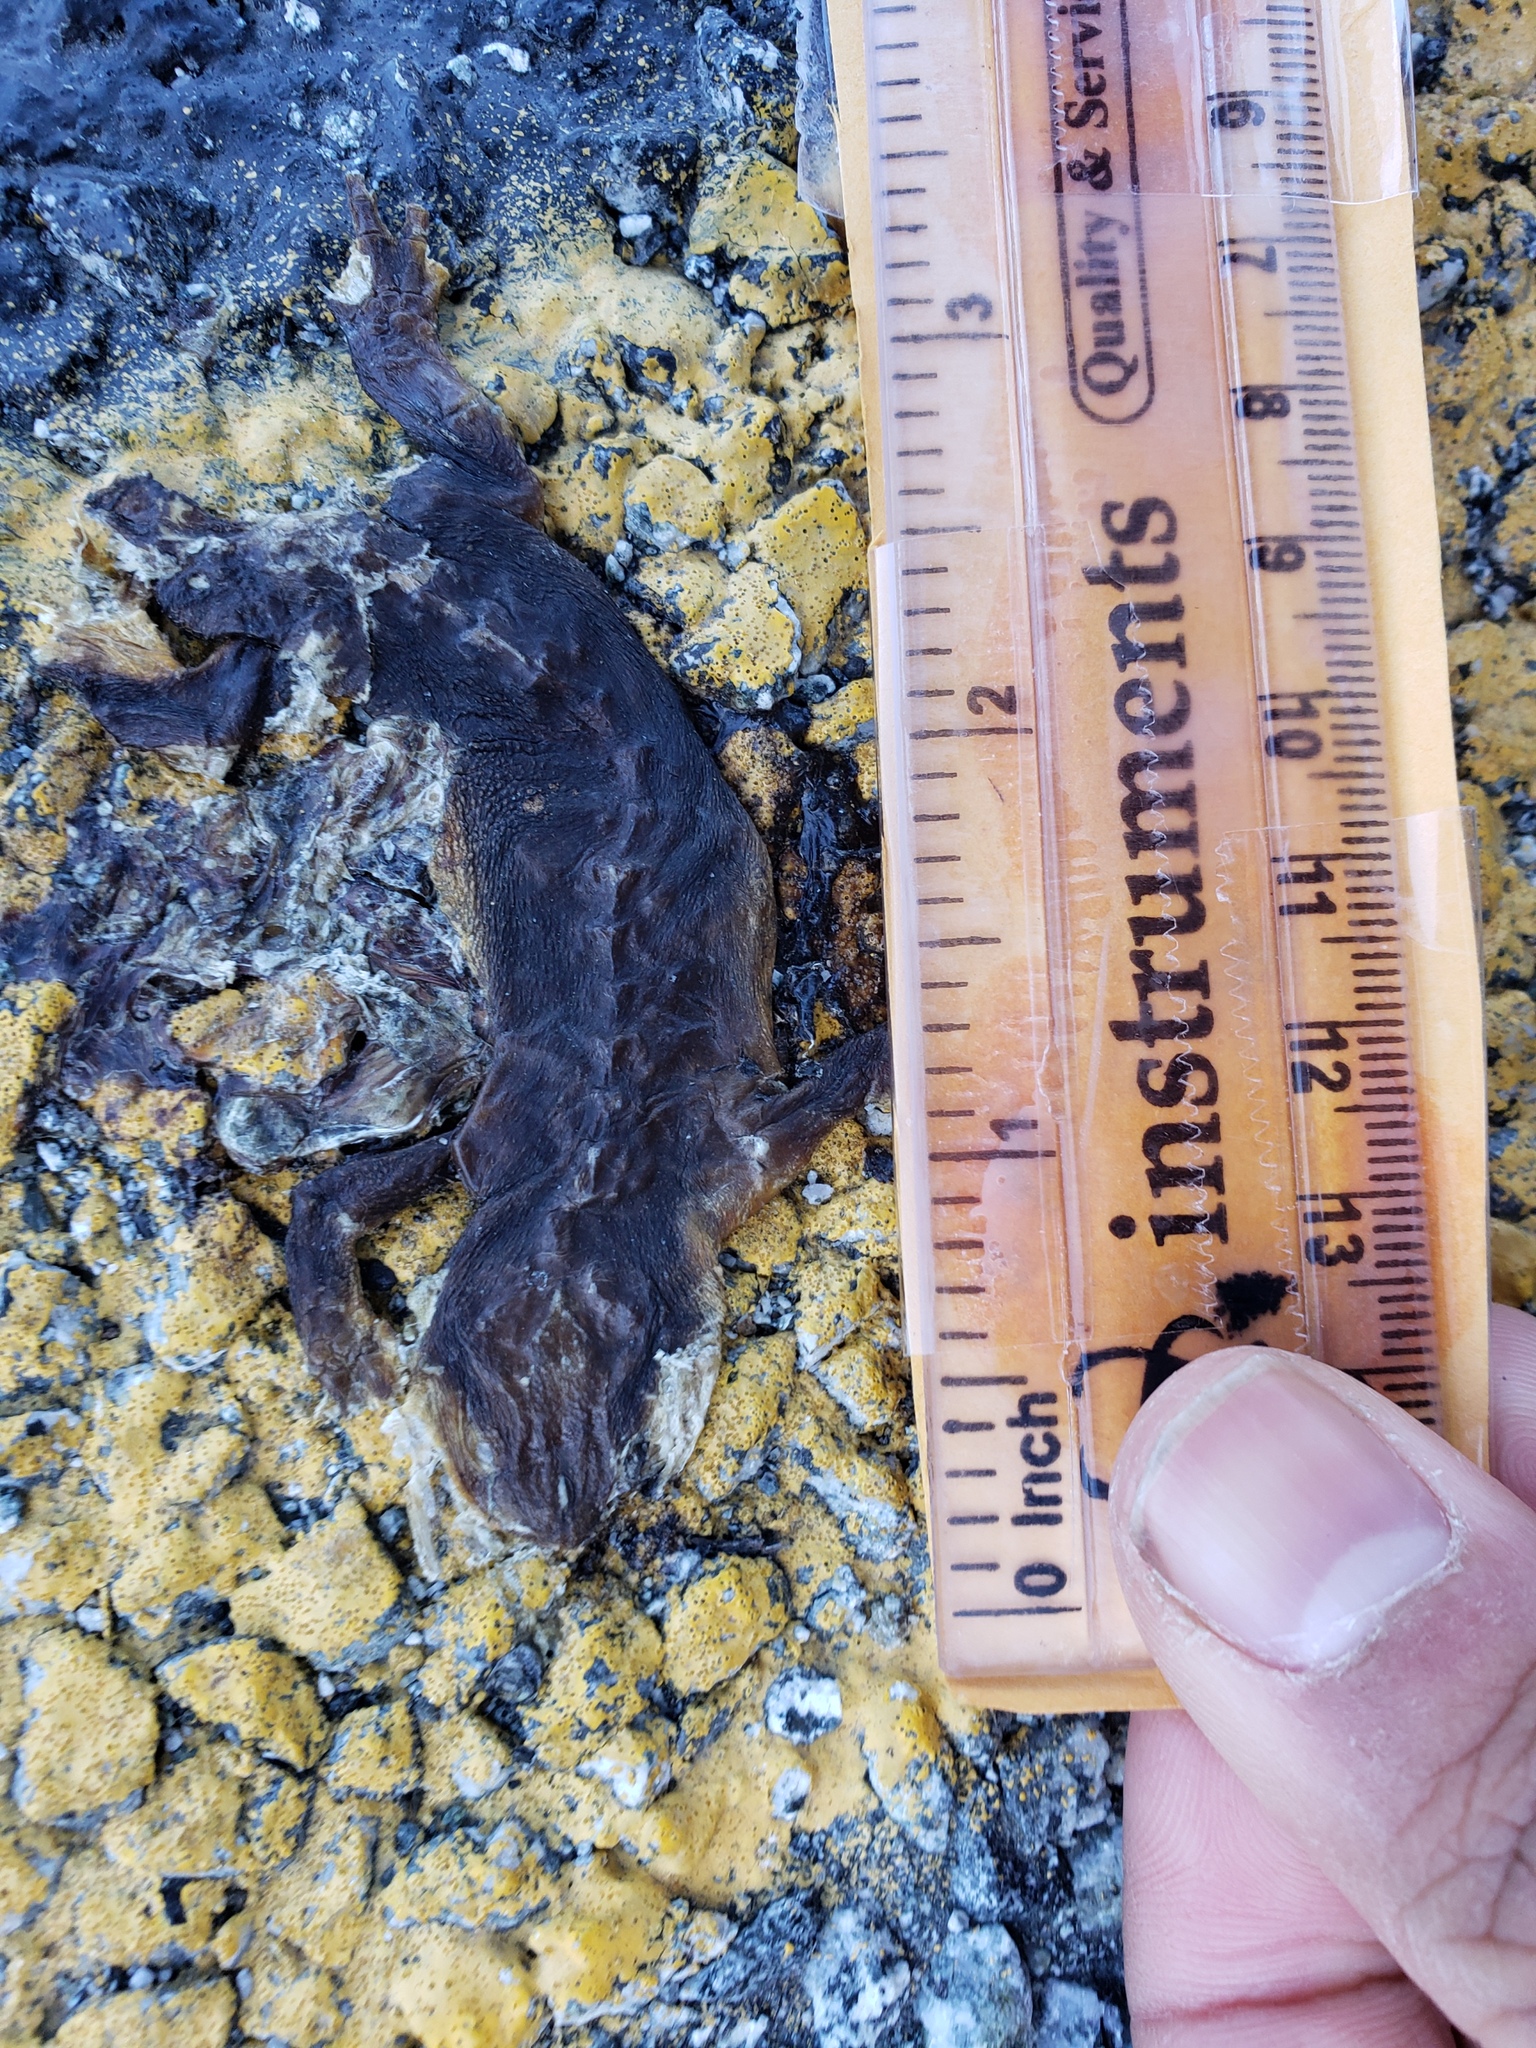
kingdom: Animalia
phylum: Chordata
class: Amphibia
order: Caudata
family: Salamandridae
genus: Taricha
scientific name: Taricha
